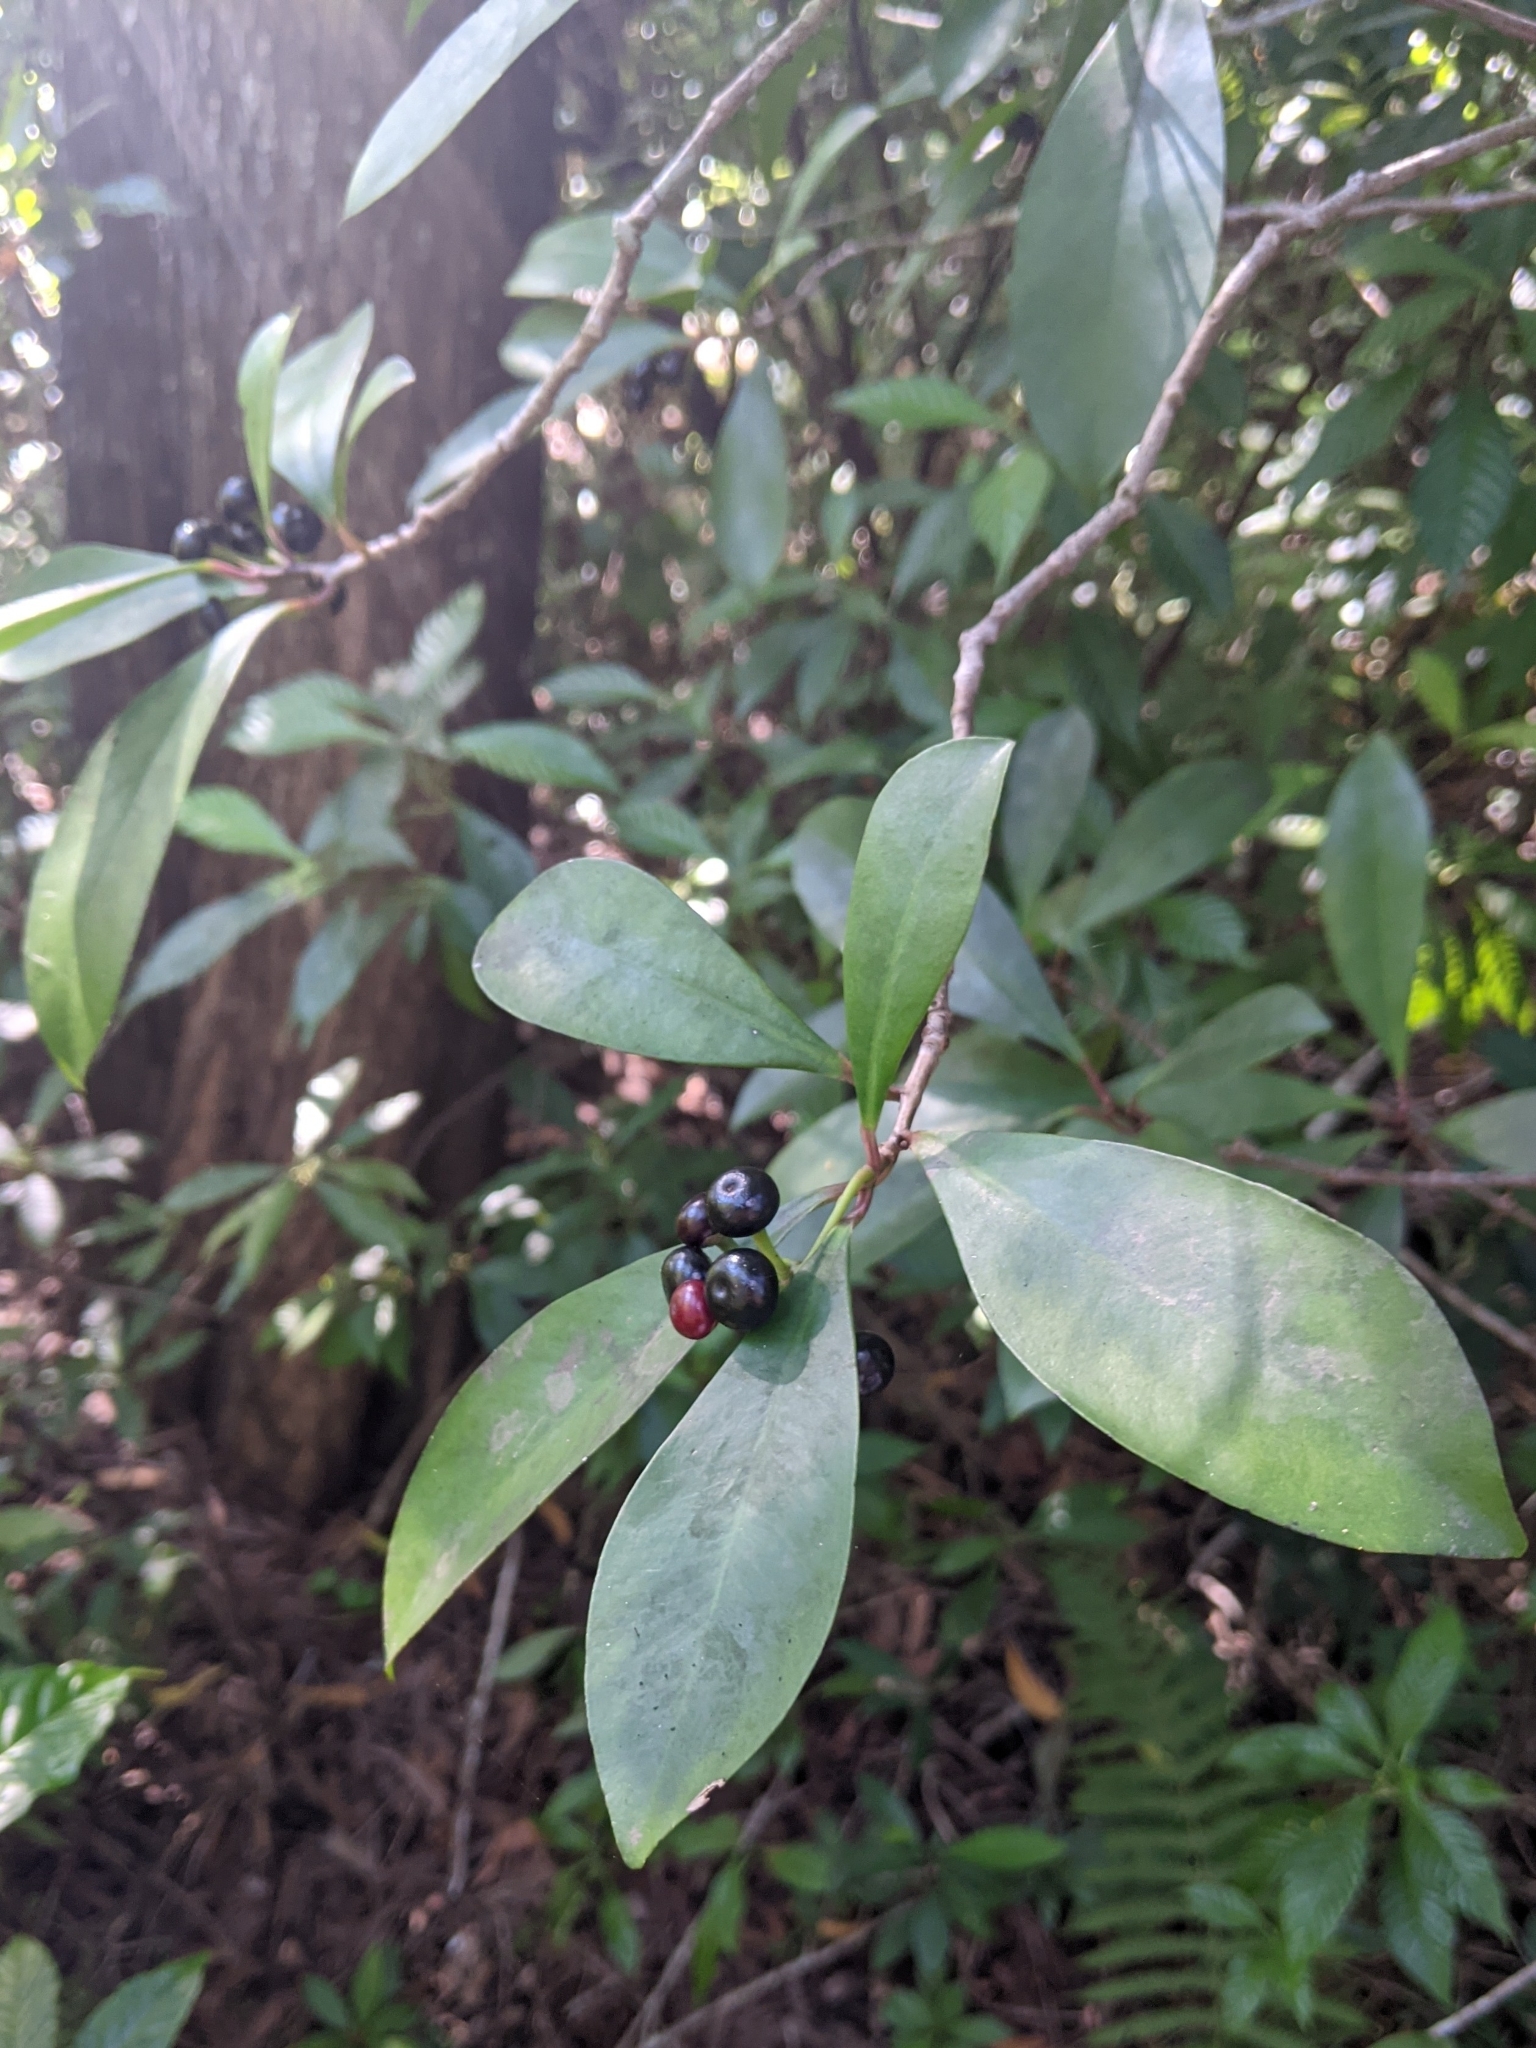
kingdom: Plantae
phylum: Tracheophyta
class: Magnoliopsida
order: Ericales
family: Primulaceae
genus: Ardisia
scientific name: Ardisia elliptica
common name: Shoebutton
